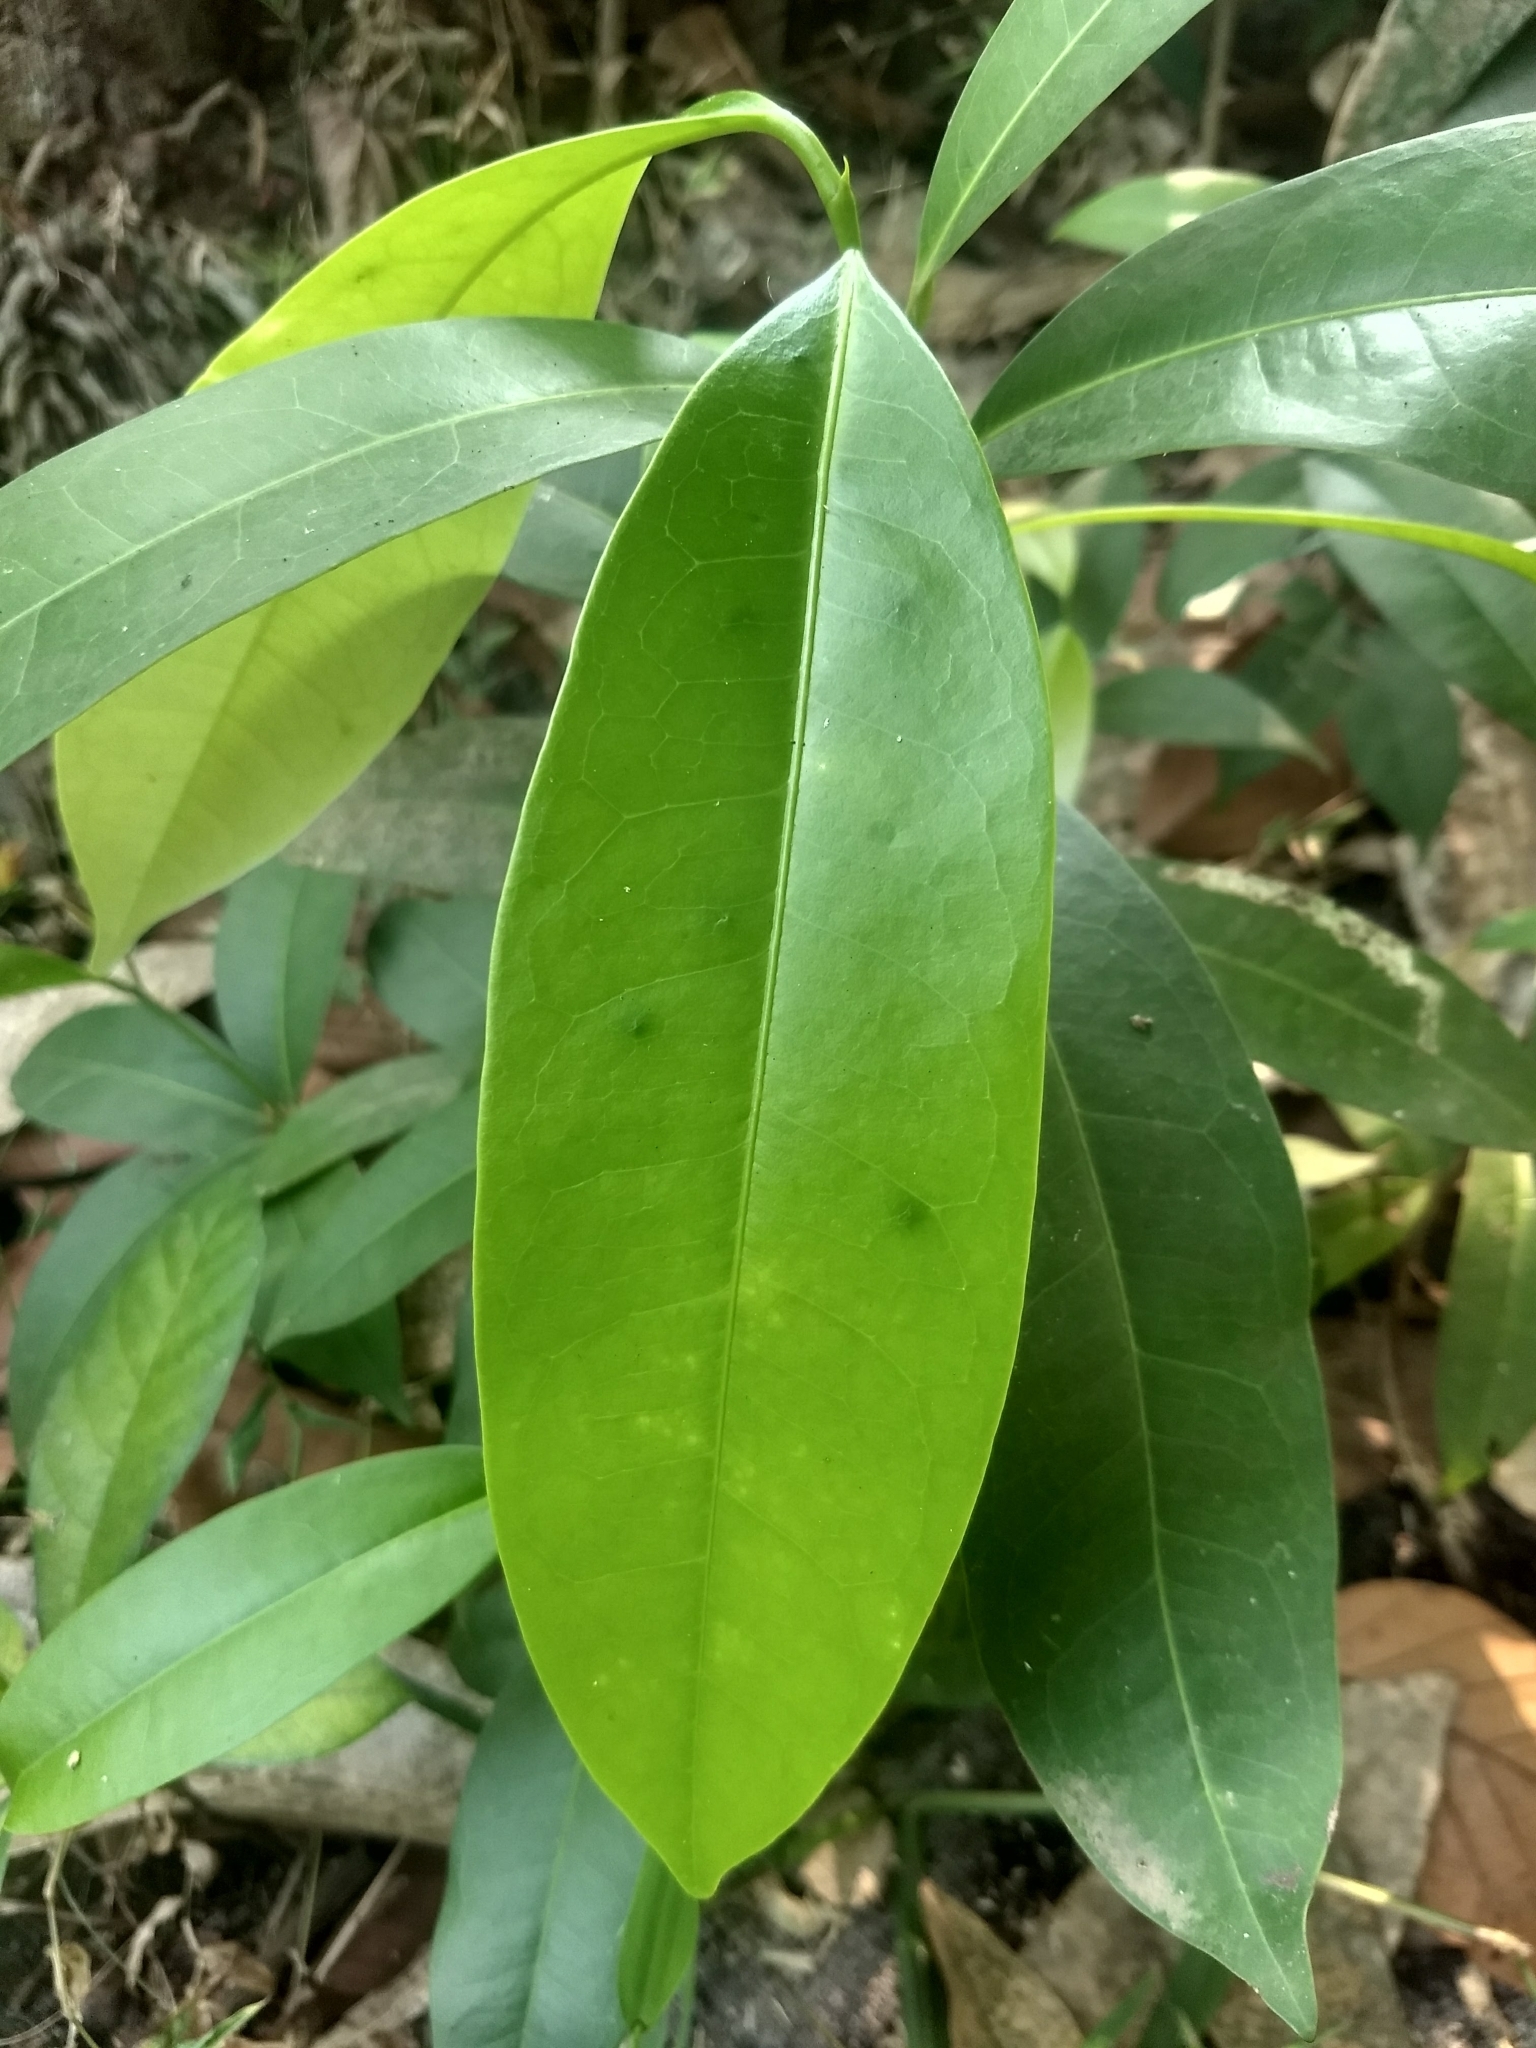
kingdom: Plantae
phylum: Tracheophyta
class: Magnoliopsida
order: Sapindales
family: Simaroubaceae
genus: Samadera
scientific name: Samadera indica
